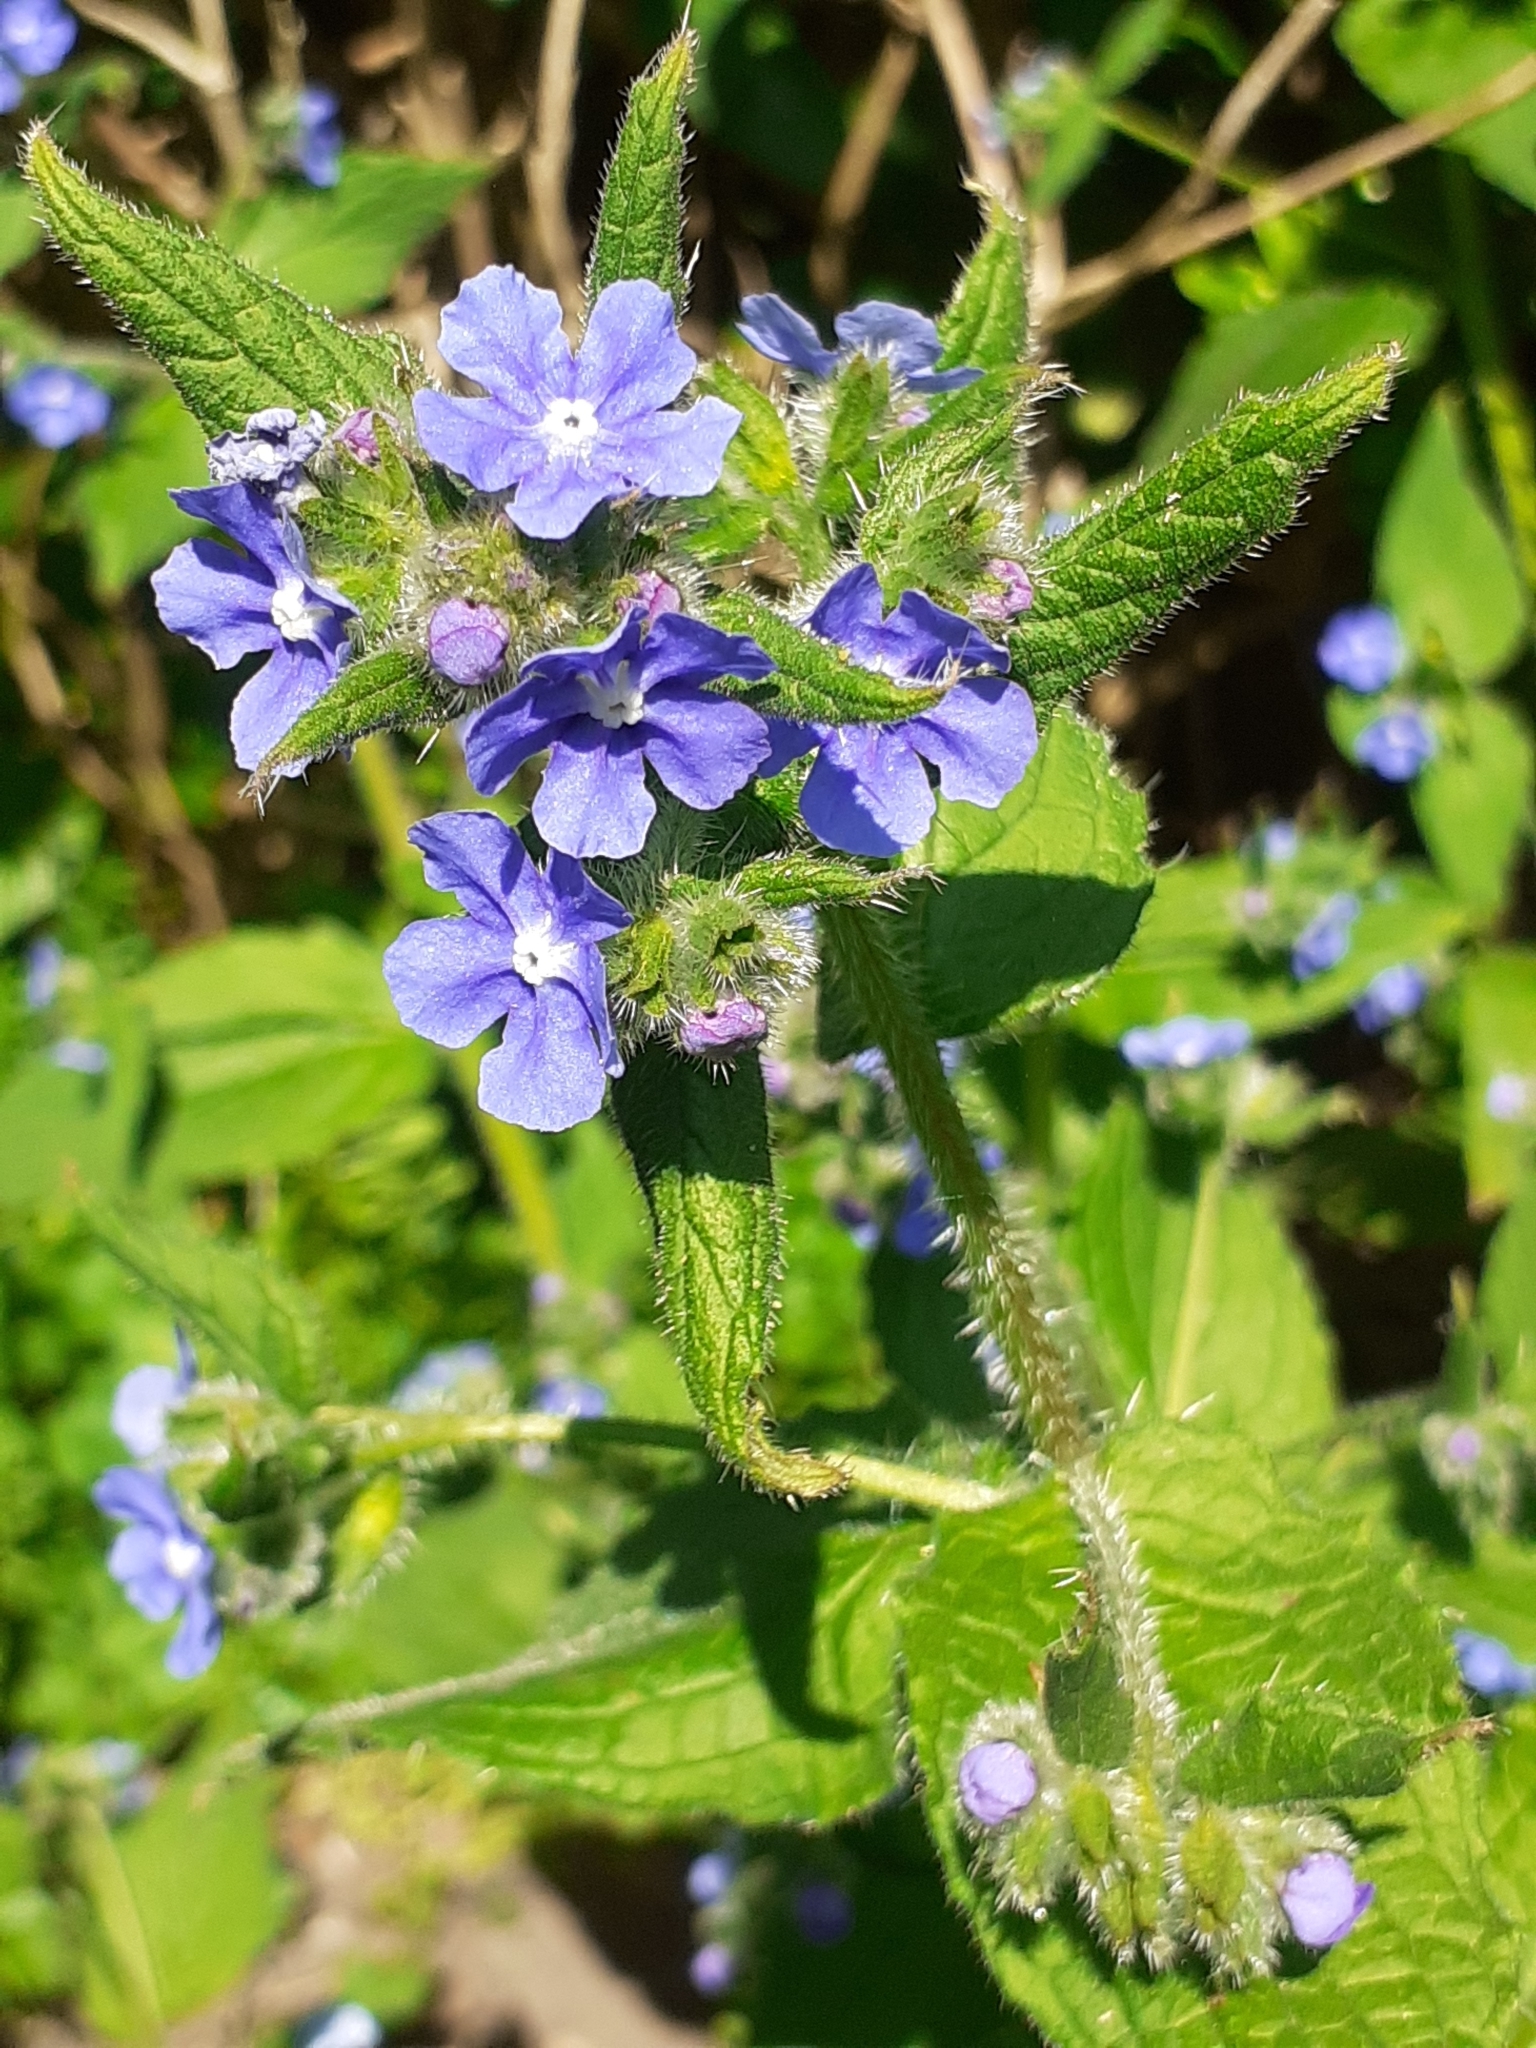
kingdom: Plantae
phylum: Tracheophyta
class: Magnoliopsida
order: Boraginales
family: Boraginaceae
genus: Pentaglottis
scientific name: Pentaglottis sempervirens
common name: Green alkanet
